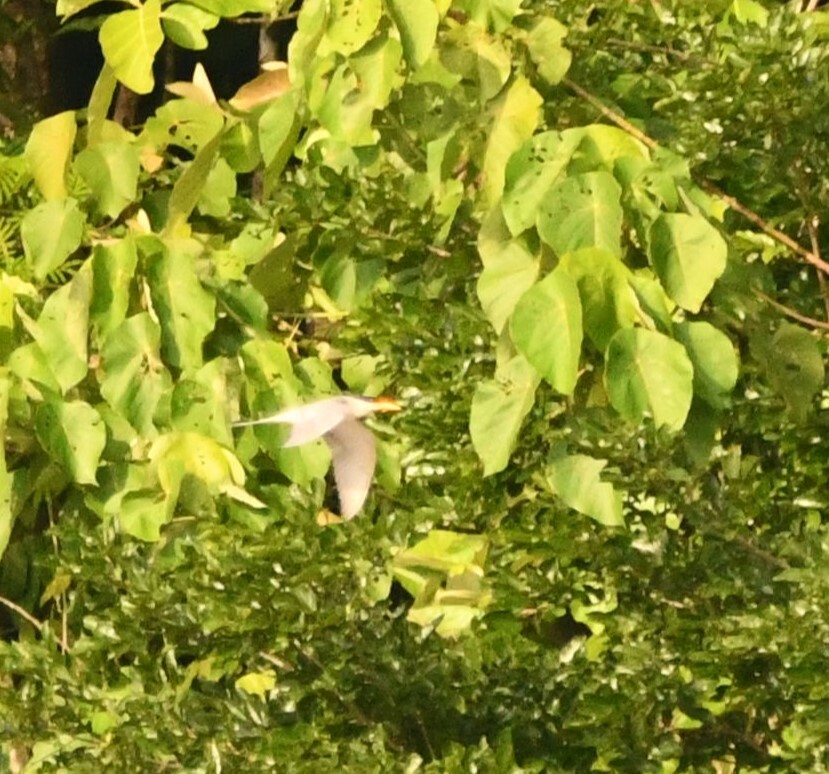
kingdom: Animalia
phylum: Chordata
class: Aves
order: Charadriiformes
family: Laridae
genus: Sterna
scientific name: Sterna aurantia
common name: River tern
